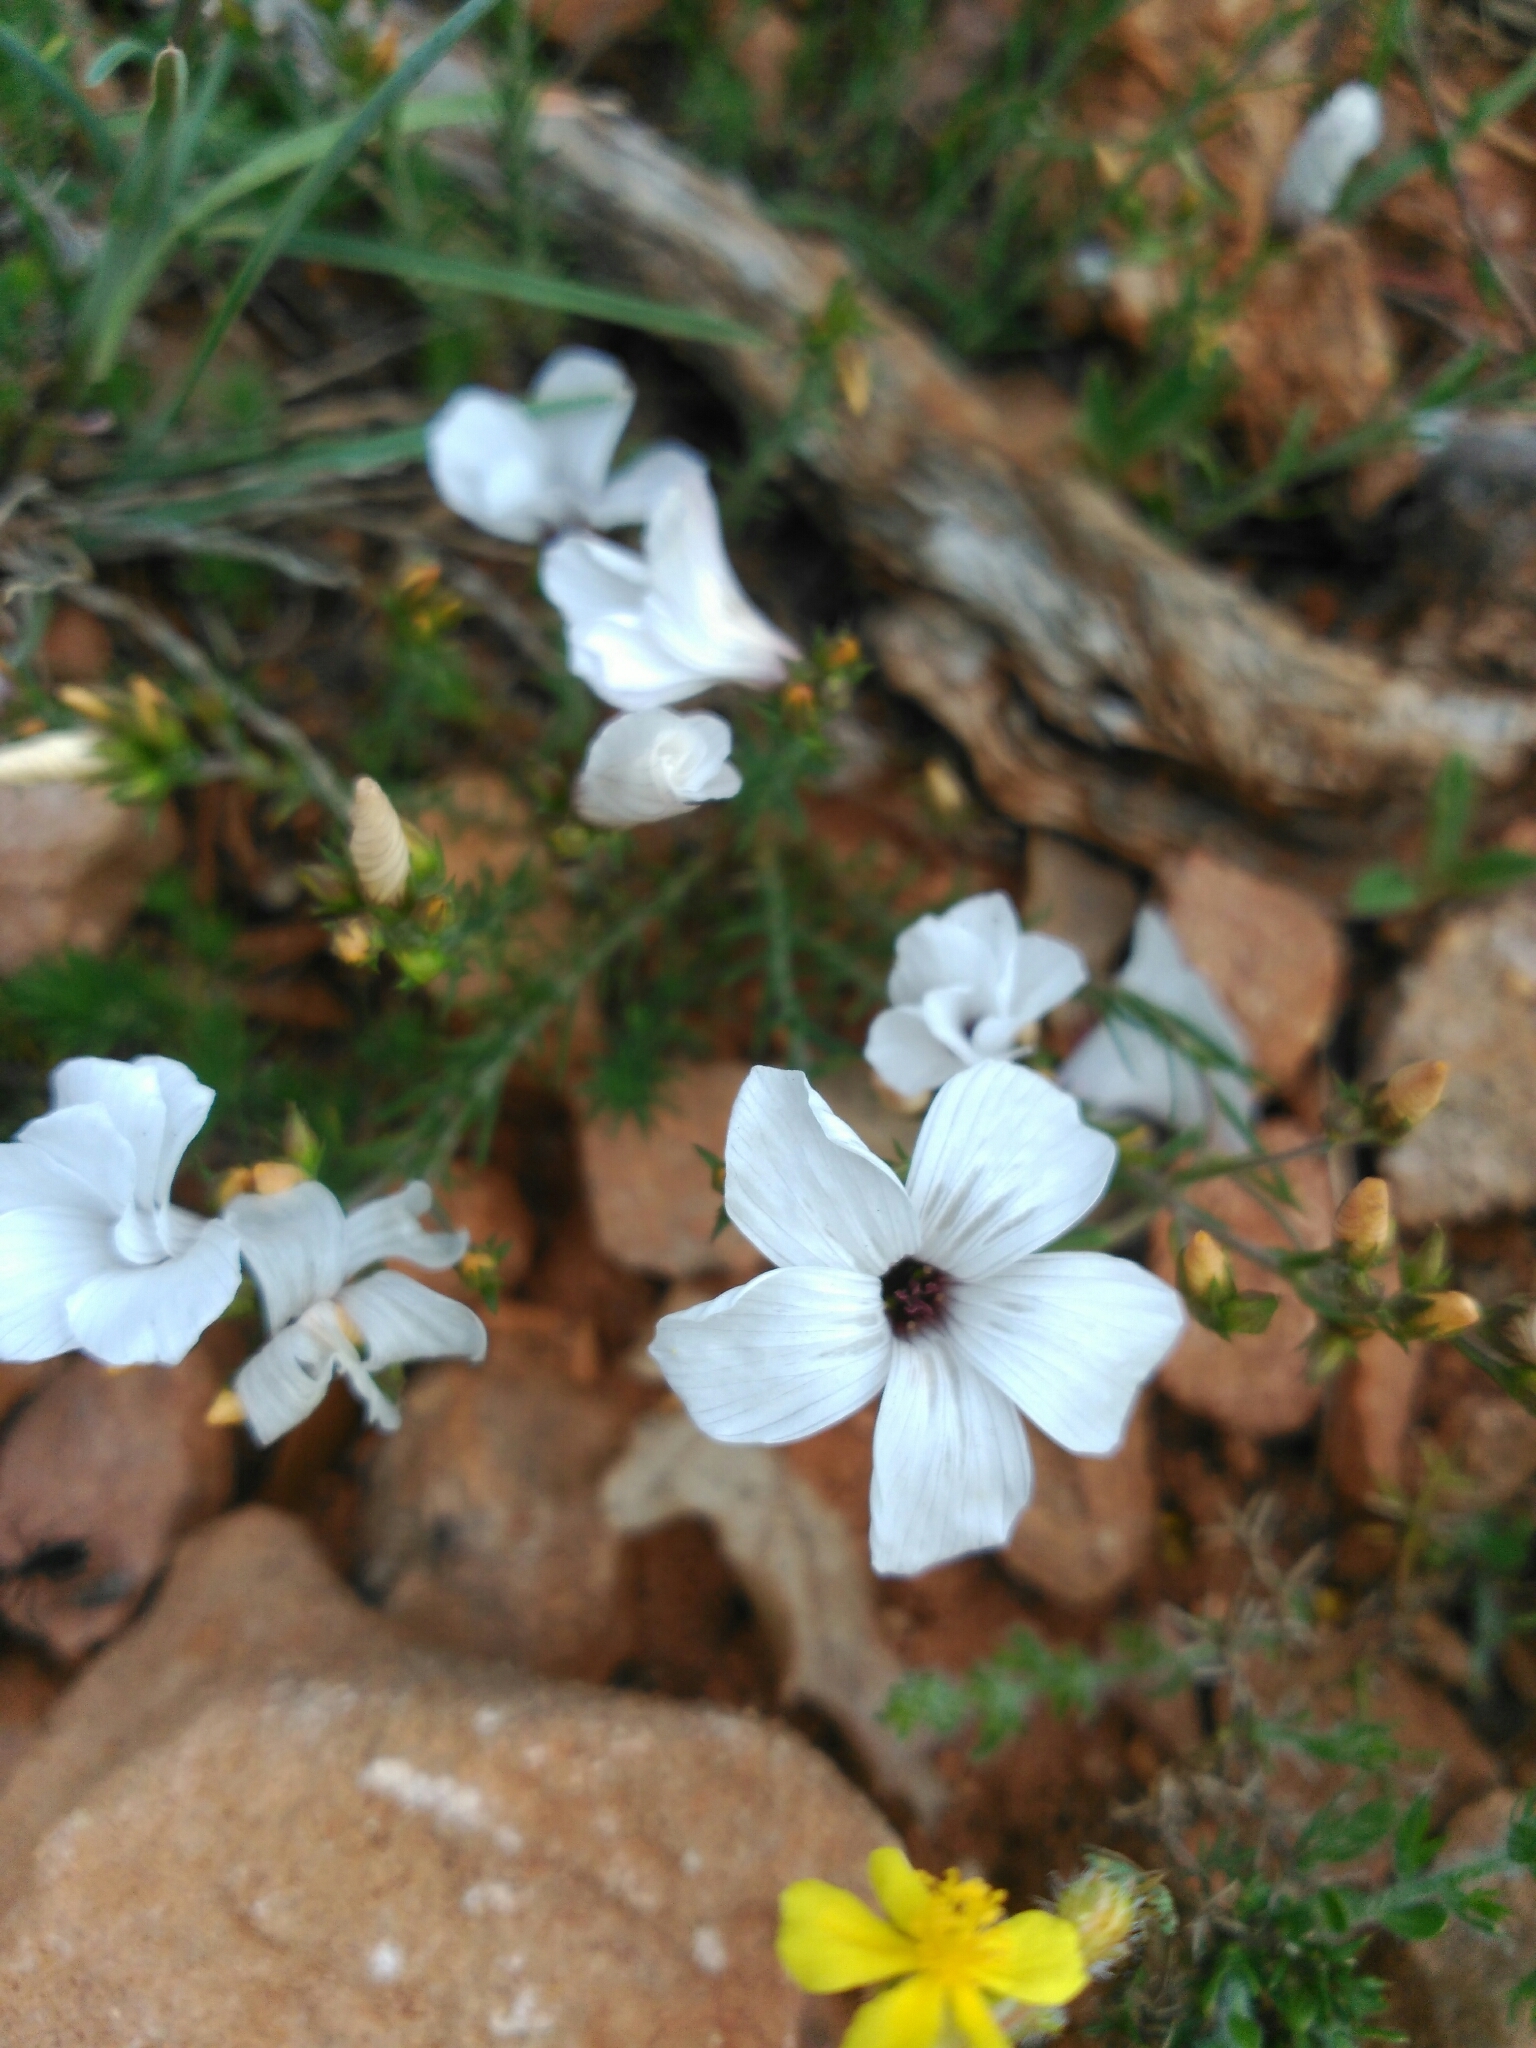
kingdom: Plantae
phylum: Tracheophyta
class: Magnoliopsida
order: Malpighiales
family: Linaceae
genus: Linum
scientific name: Linum tenuifolium
